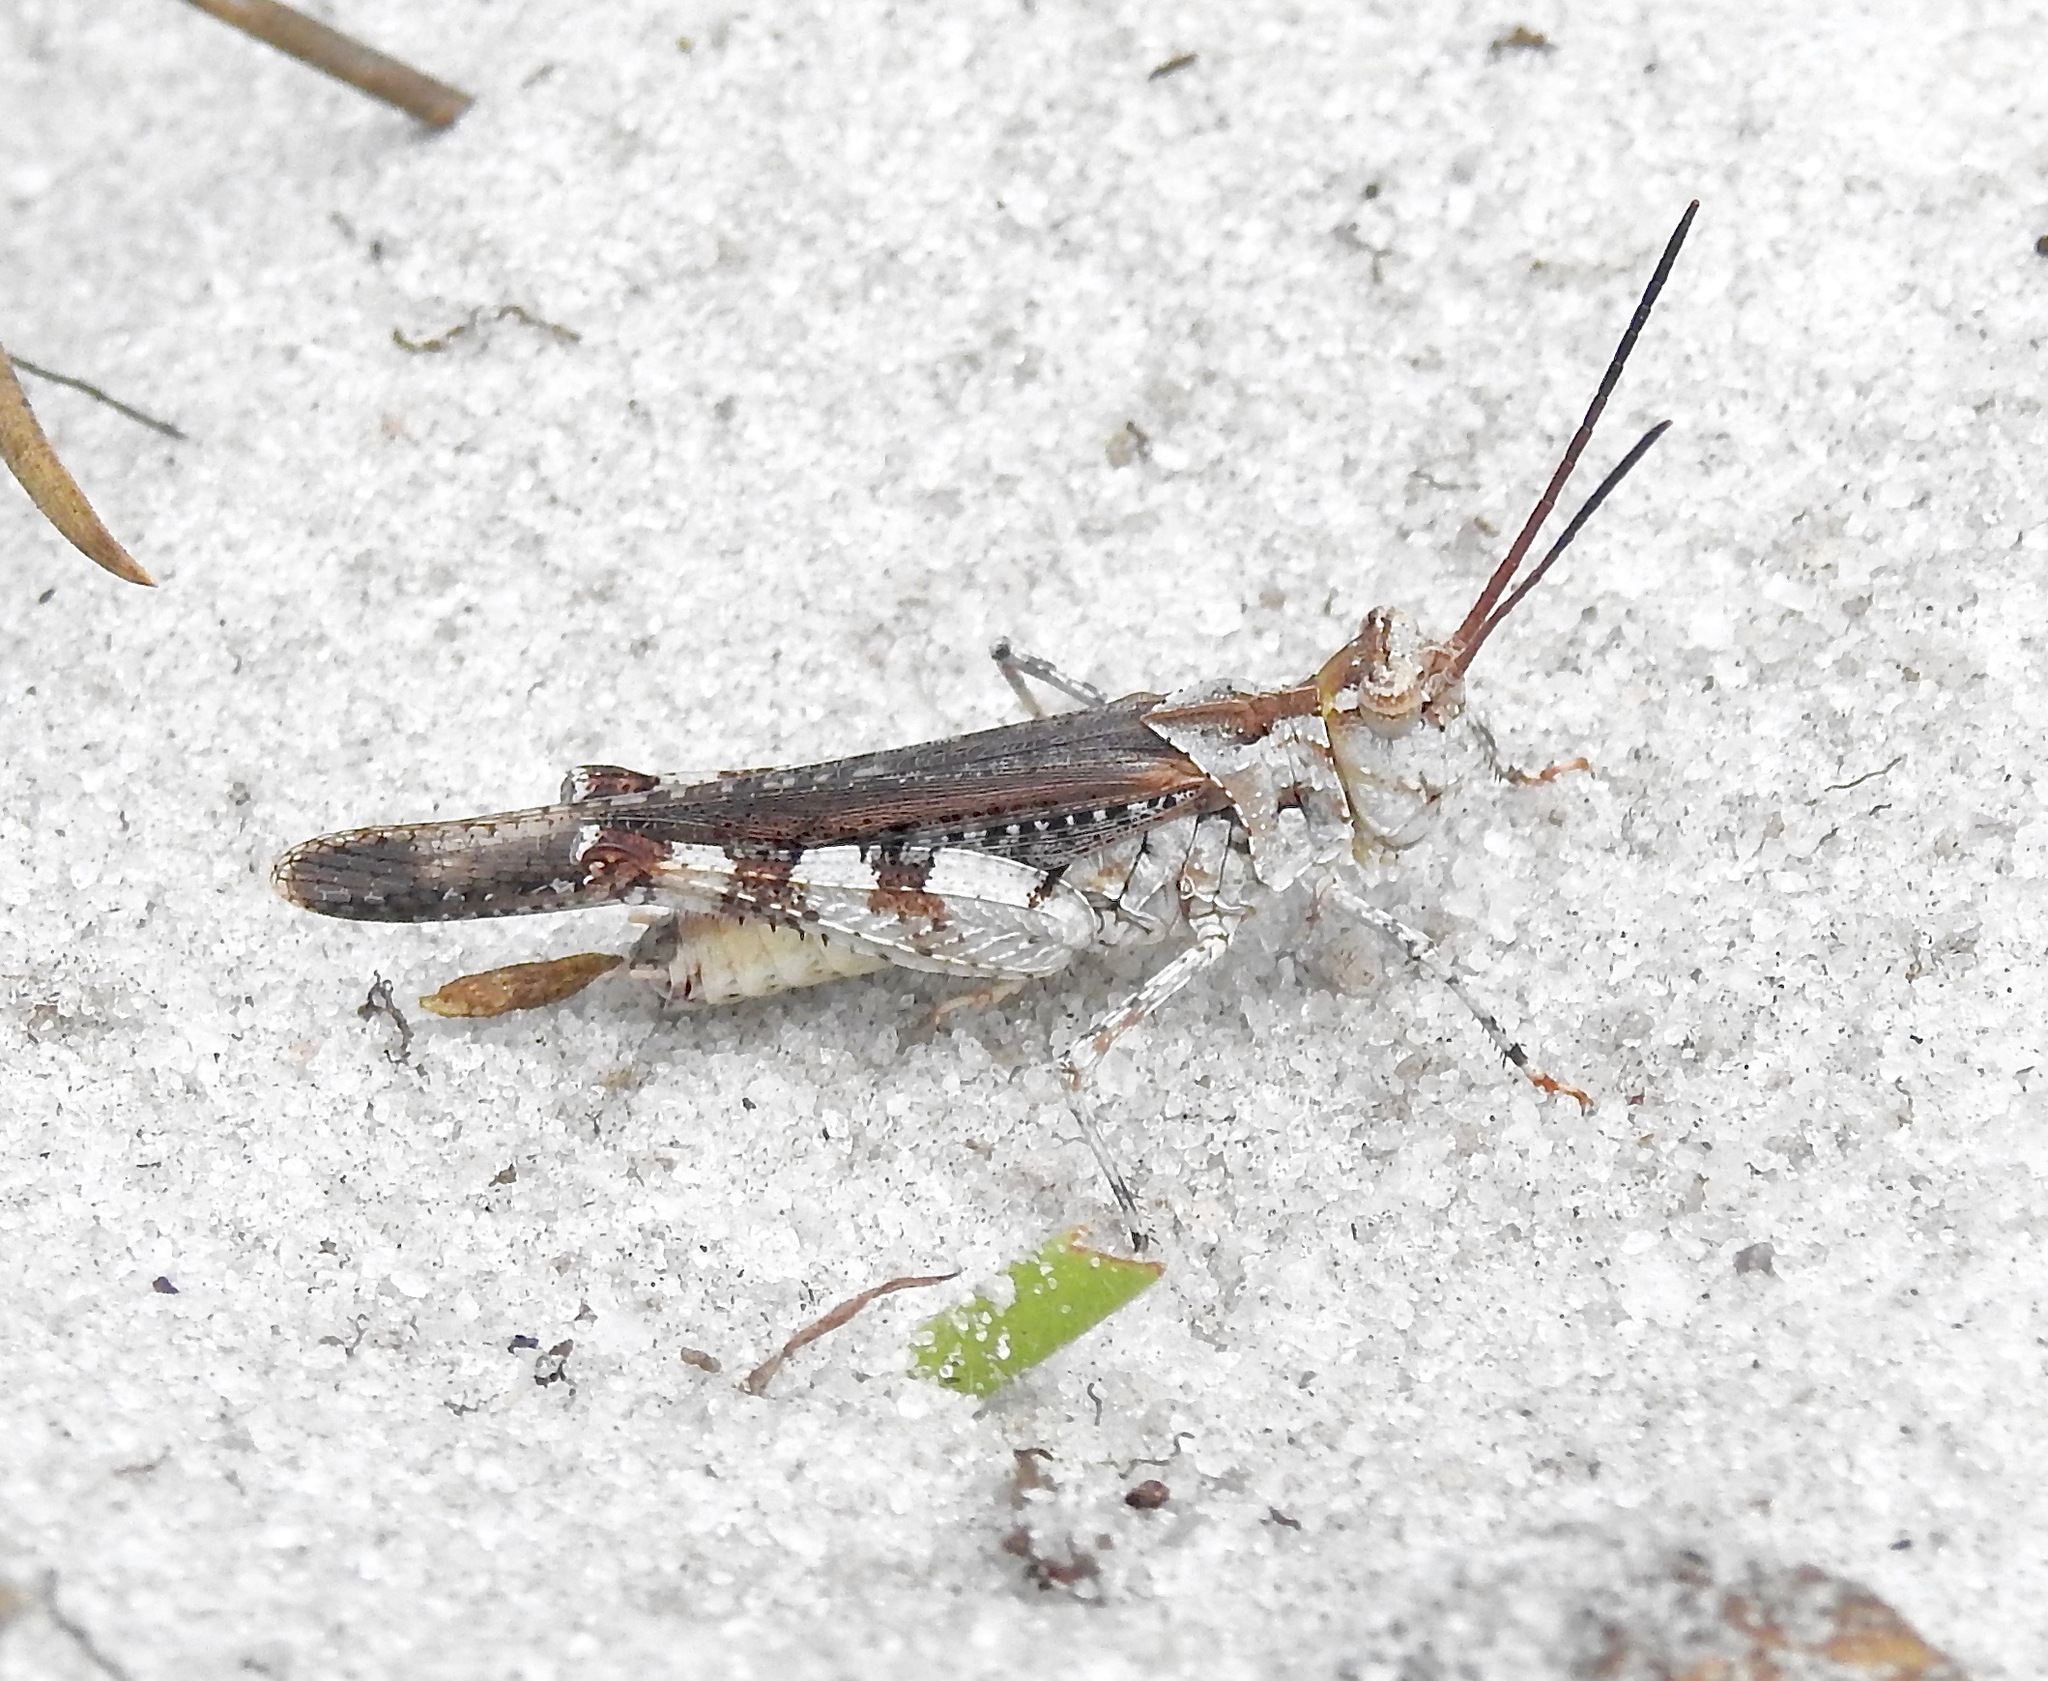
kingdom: Animalia
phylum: Arthropoda
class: Insecta
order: Orthoptera
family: Acrididae
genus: Psinidia
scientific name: Psinidia fenestralis
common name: Long-horned locust
